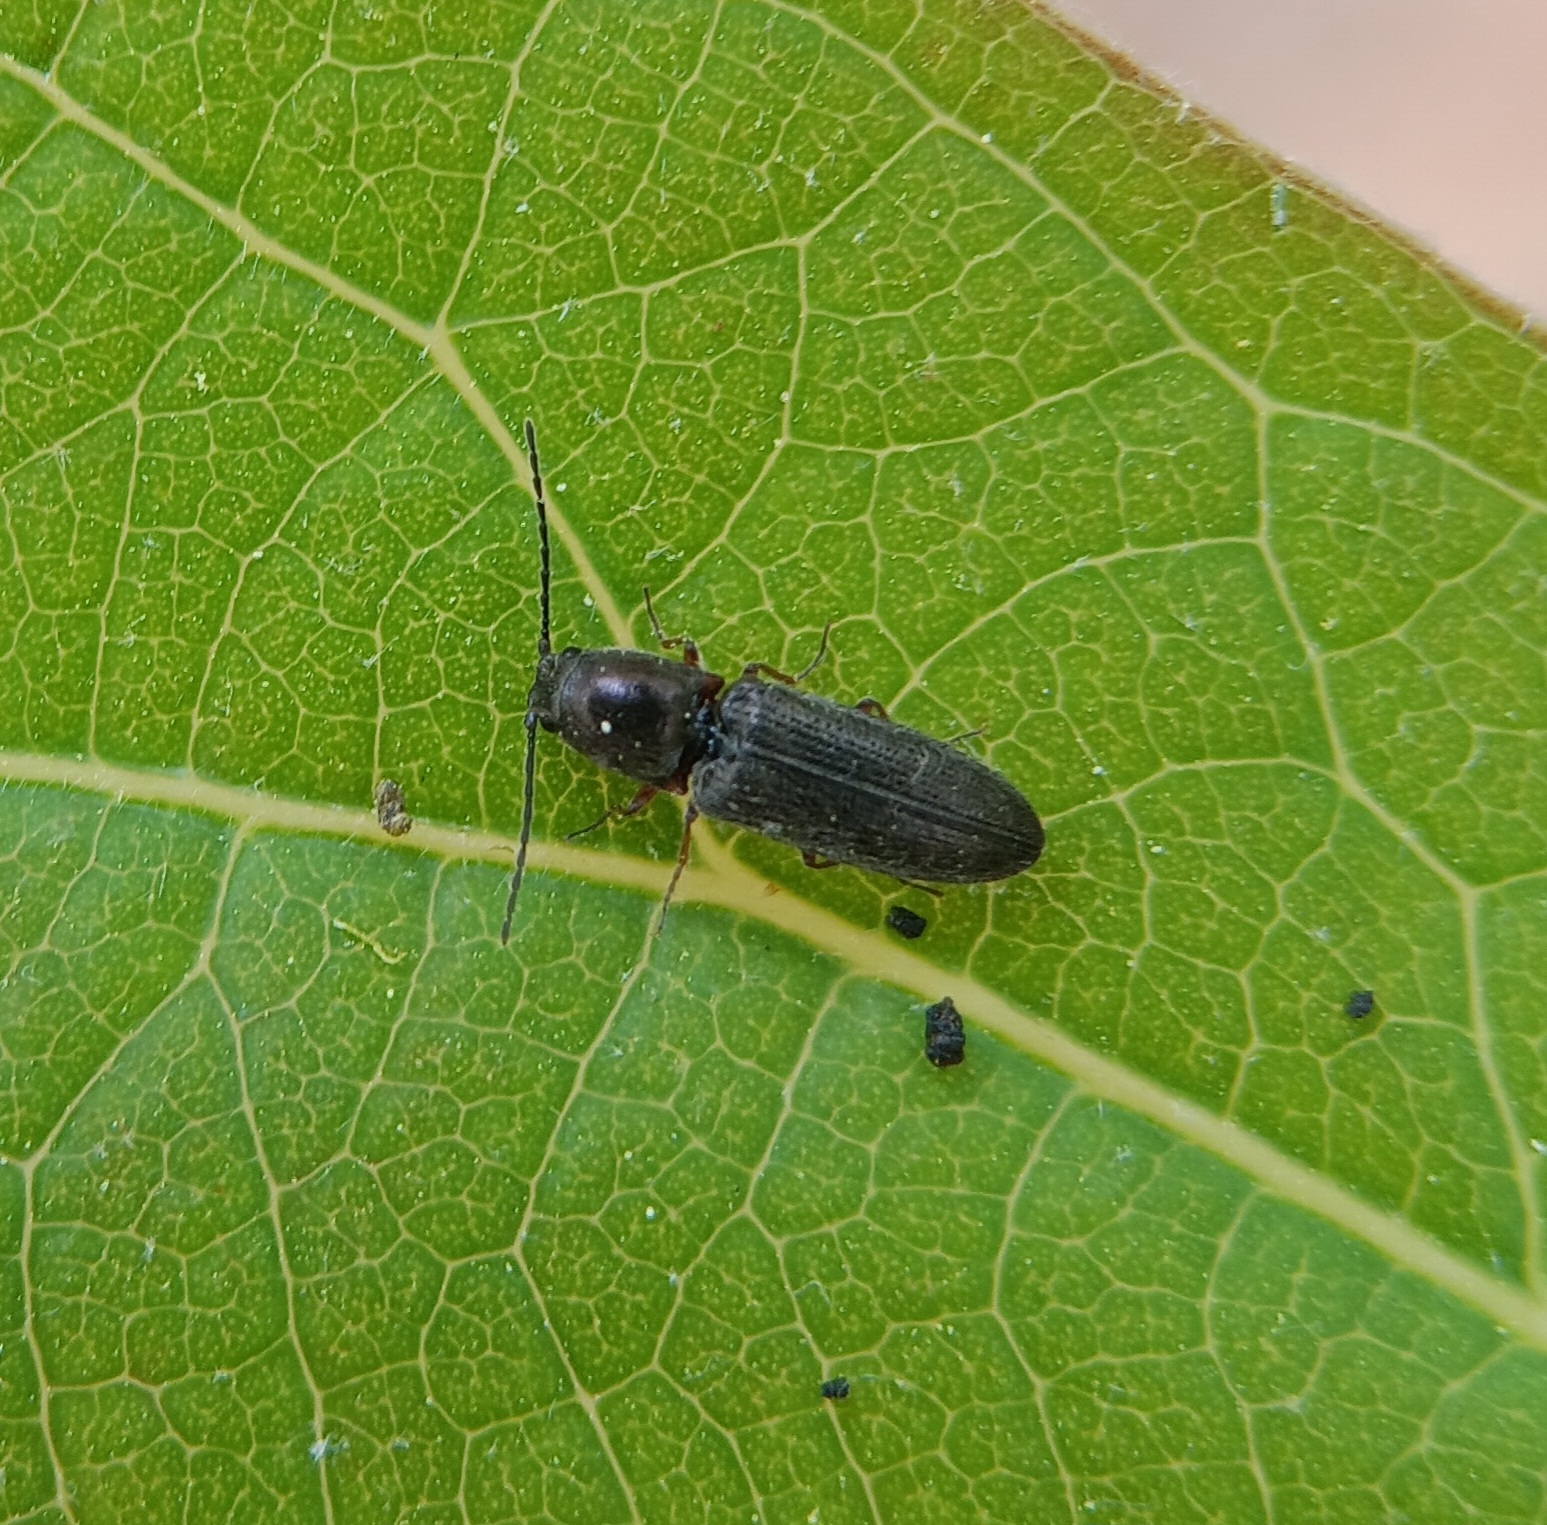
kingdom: Animalia
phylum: Arthropoda
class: Insecta
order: Coleoptera
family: Elateridae
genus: Limonius
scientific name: Limonius basilaris
